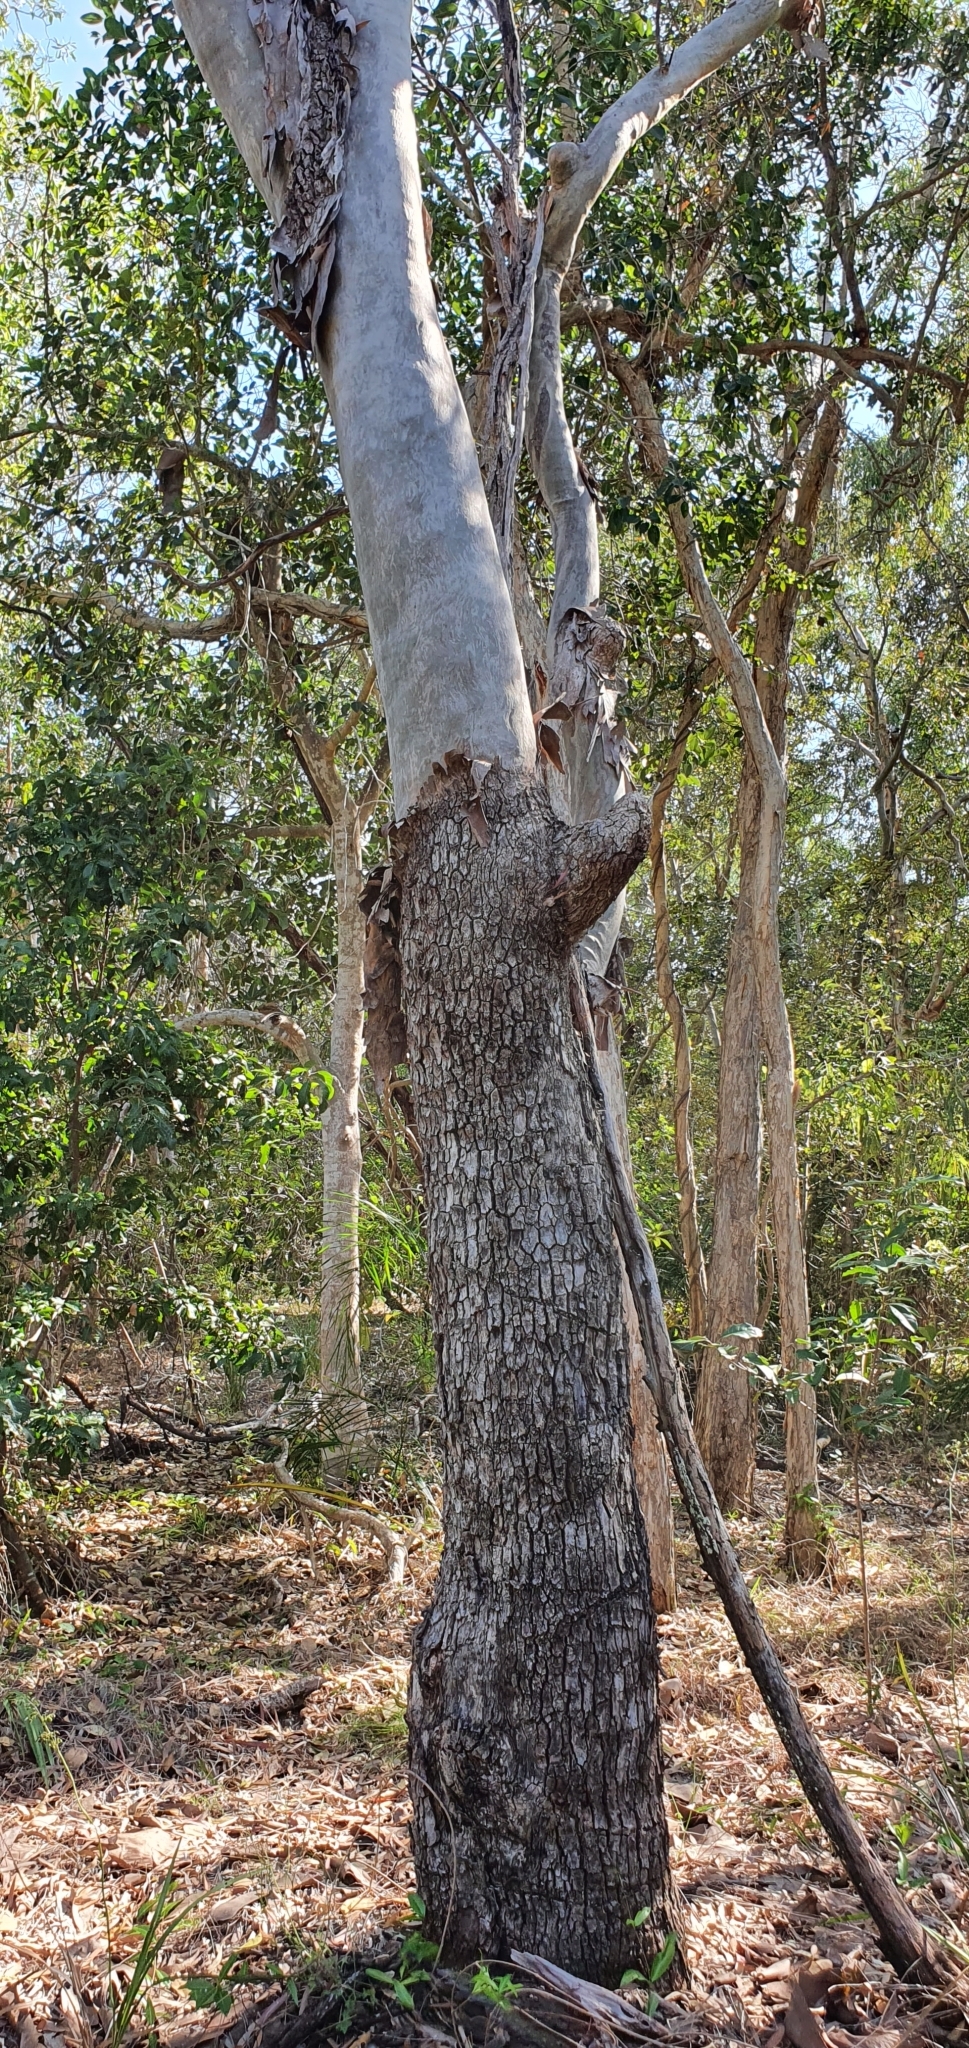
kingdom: Plantae
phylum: Tracheophyta
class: Magnoliopsida
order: Myrtales
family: Myrtaceae
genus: Corymbia
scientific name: Corymbia tessellaris
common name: Carbeen
